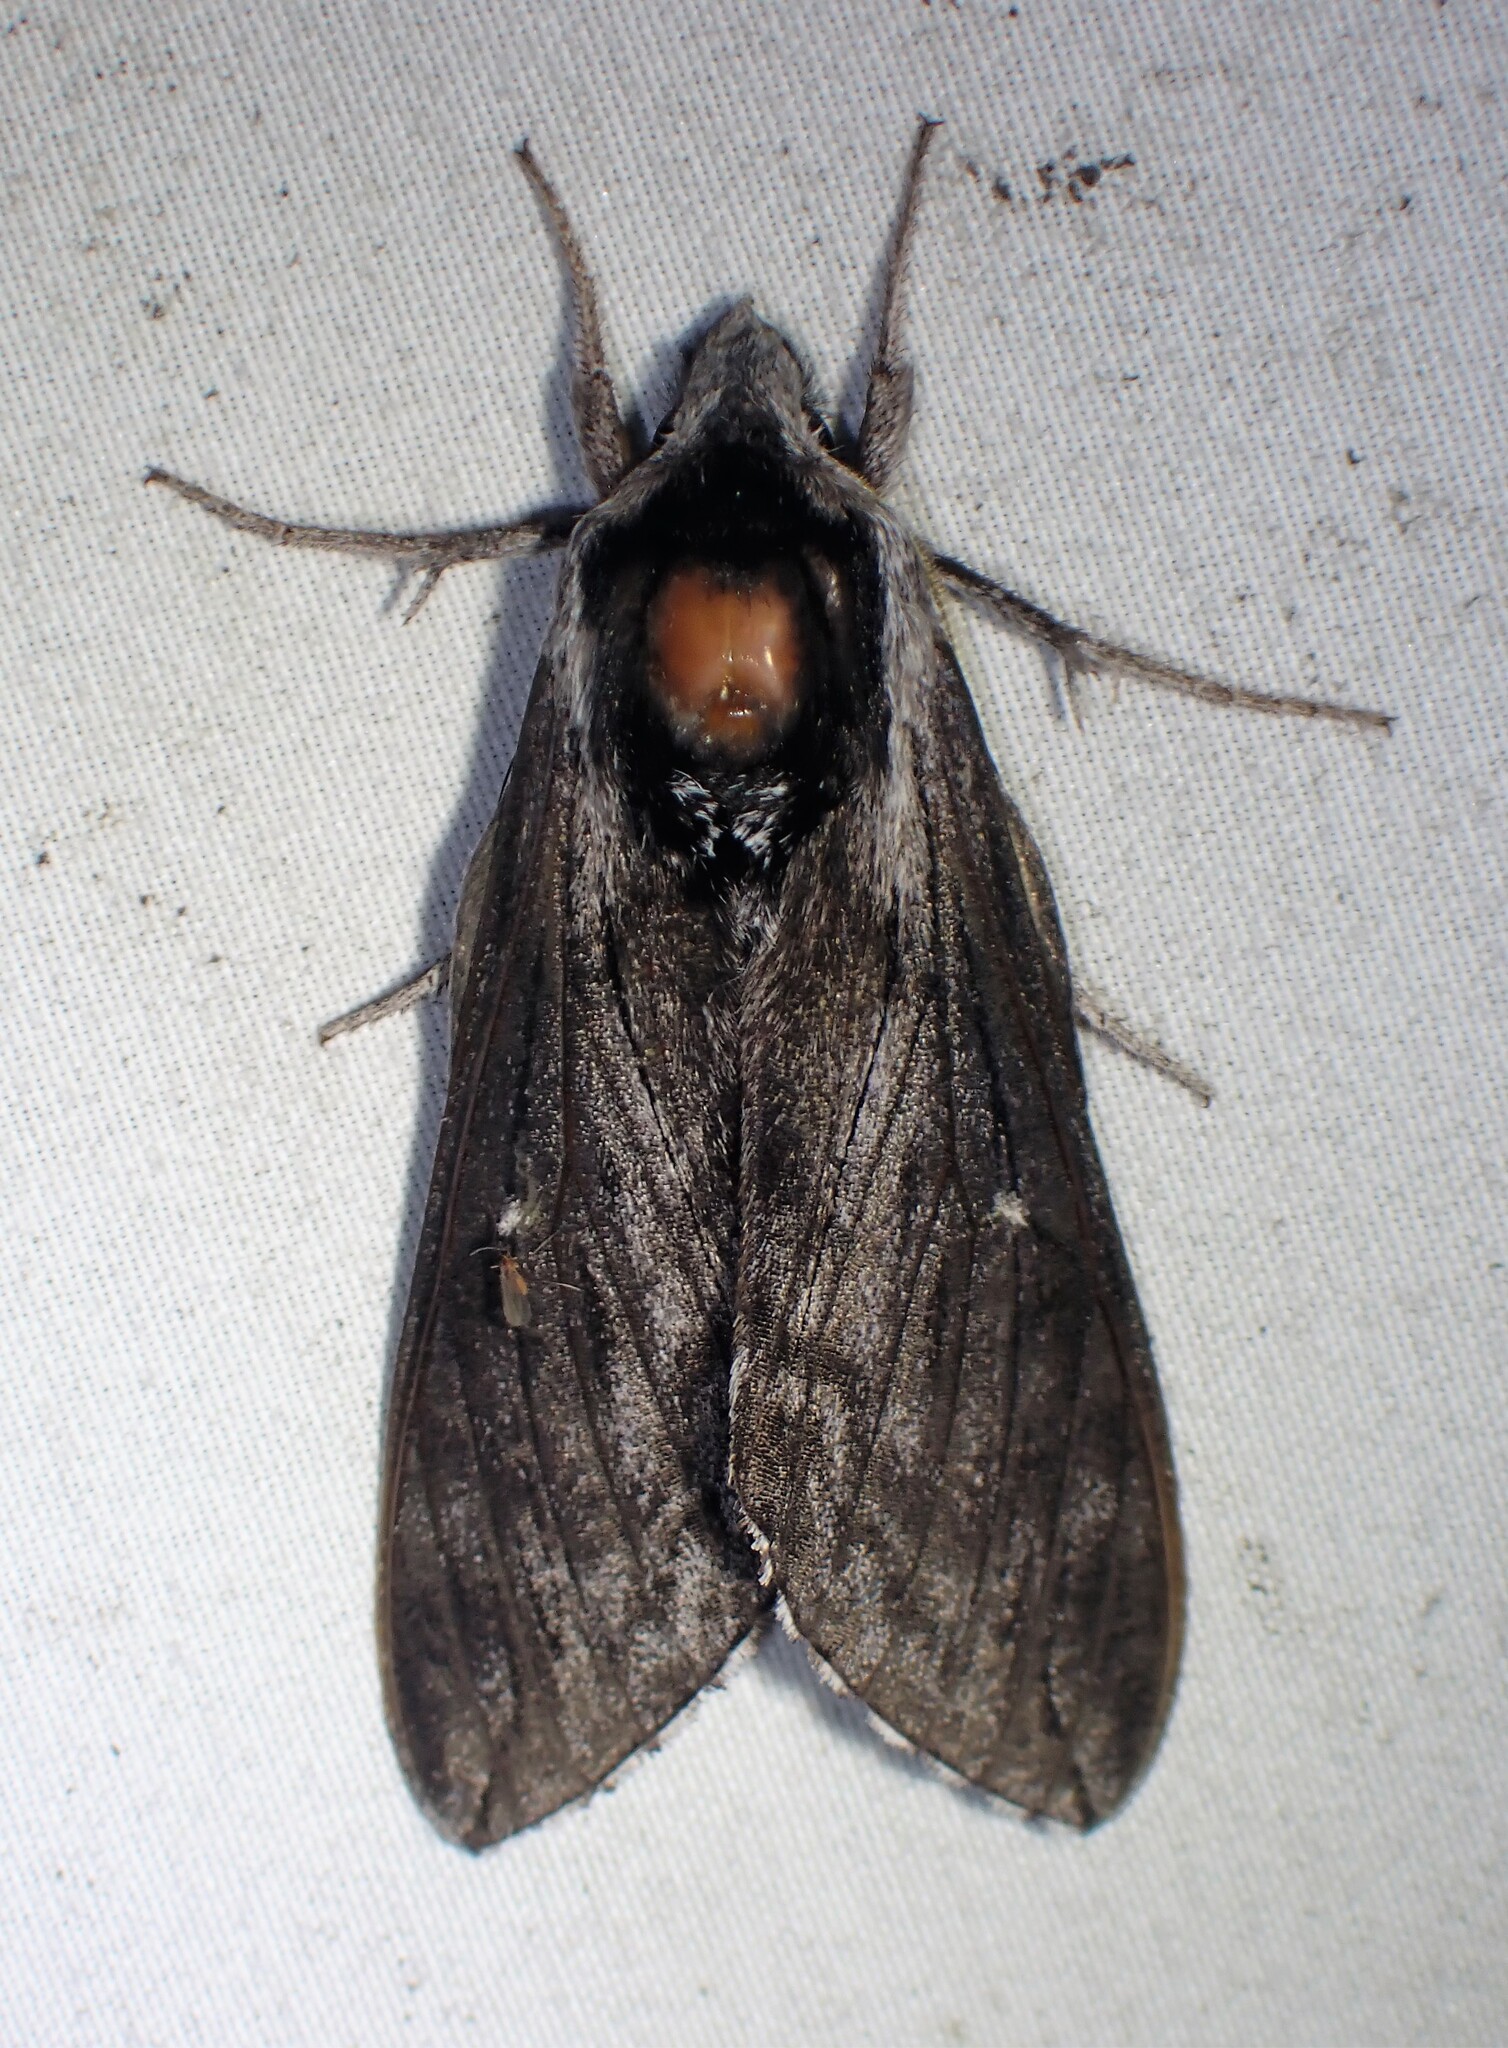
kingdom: Animalia
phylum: Arthropoda
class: Insecta
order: Lepidoptera
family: Sphingidae
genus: Sphinx
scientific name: Sphinx poecila
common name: Northern apple sphinx
